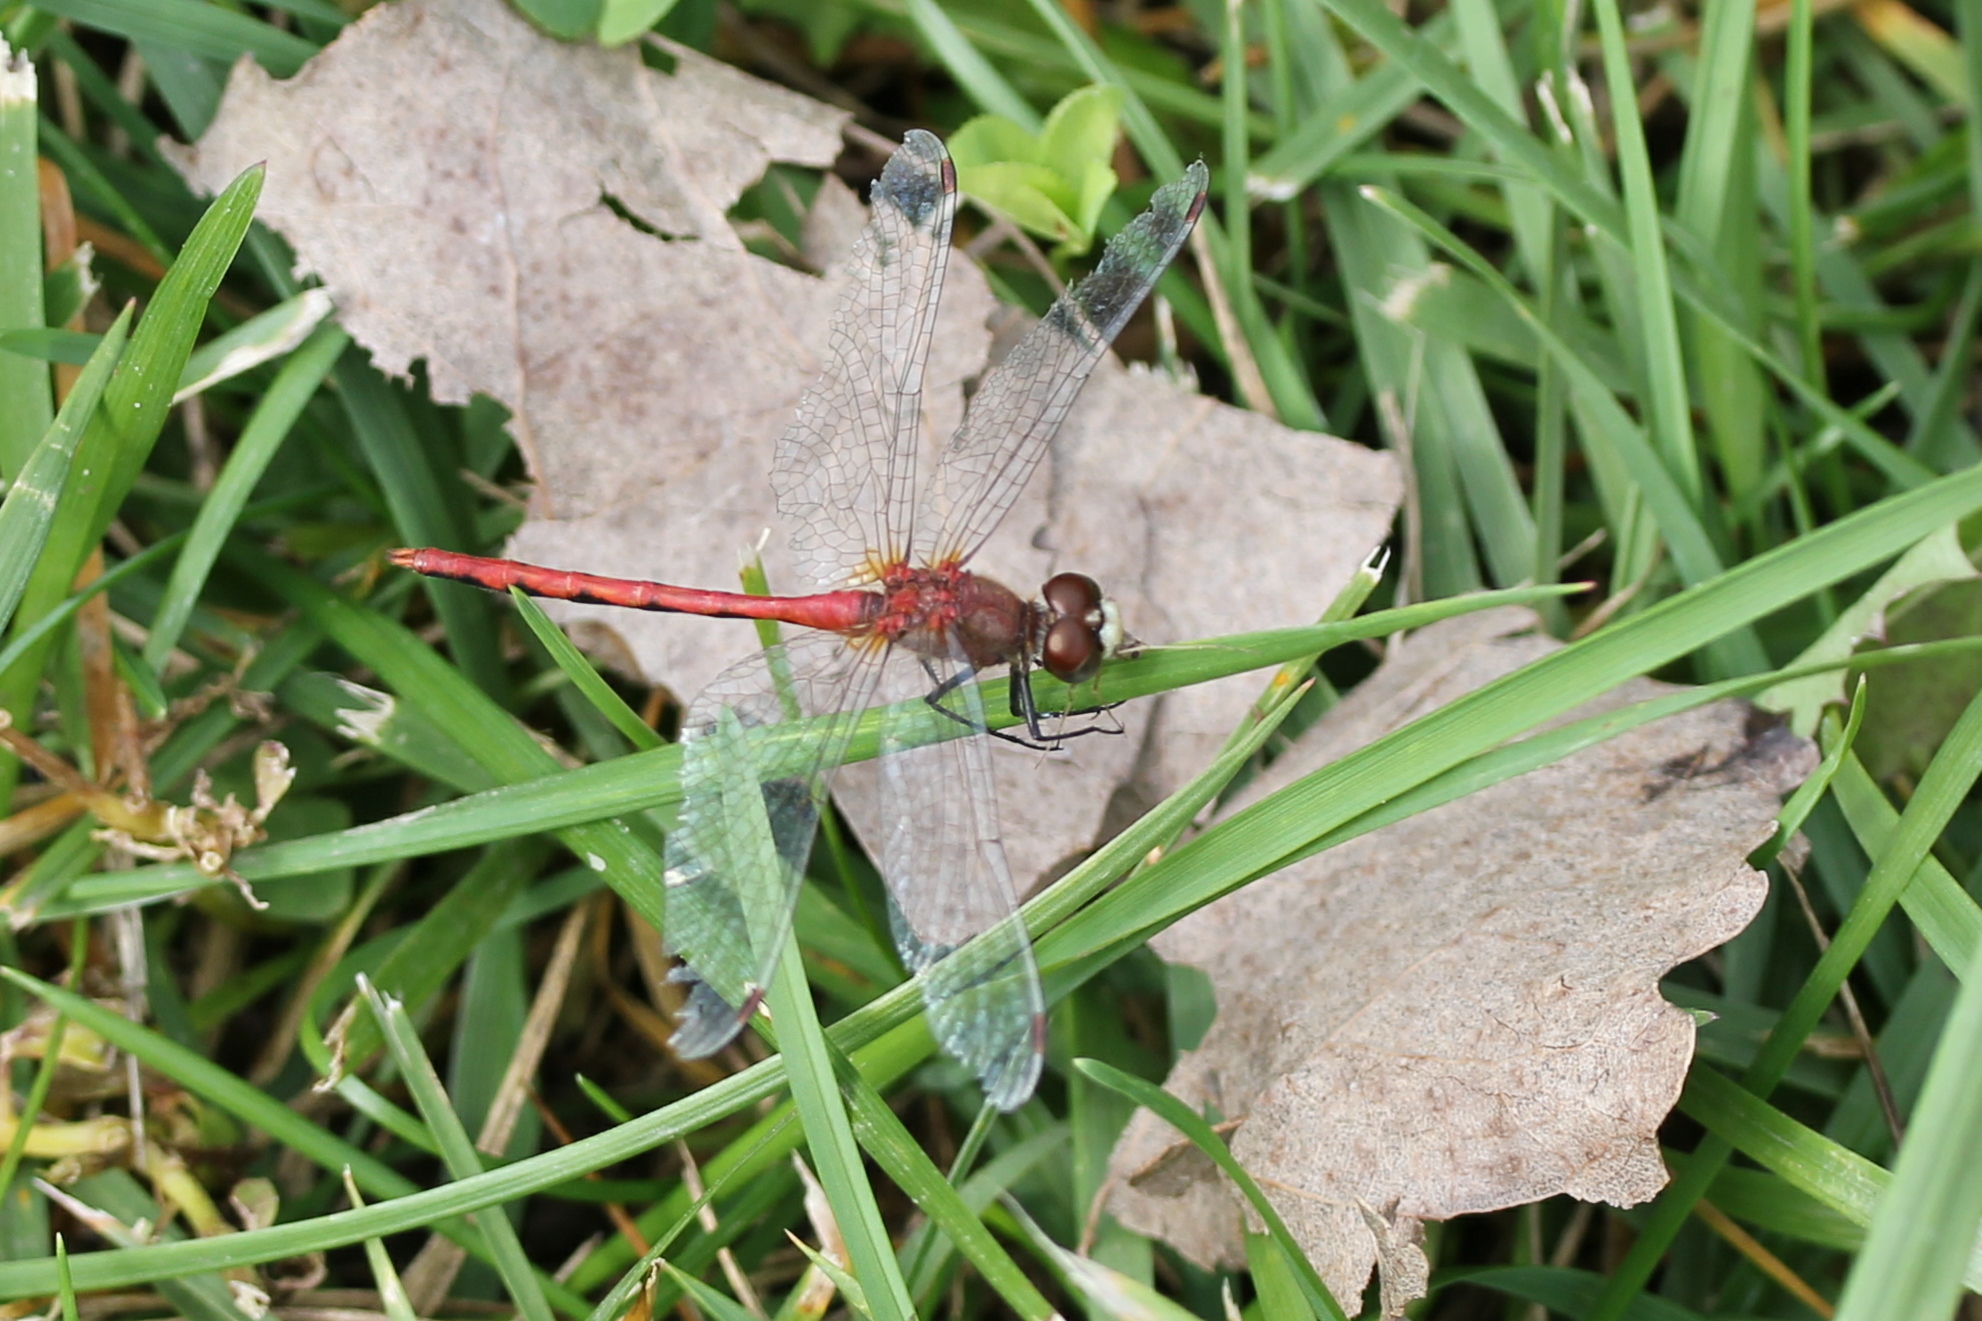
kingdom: Animalia
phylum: Arthropoda
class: Insecta
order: Odonata
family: Libellulidae
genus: Sympetrum
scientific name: Sympetrum obtrusum
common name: White-faced meadowhawk
